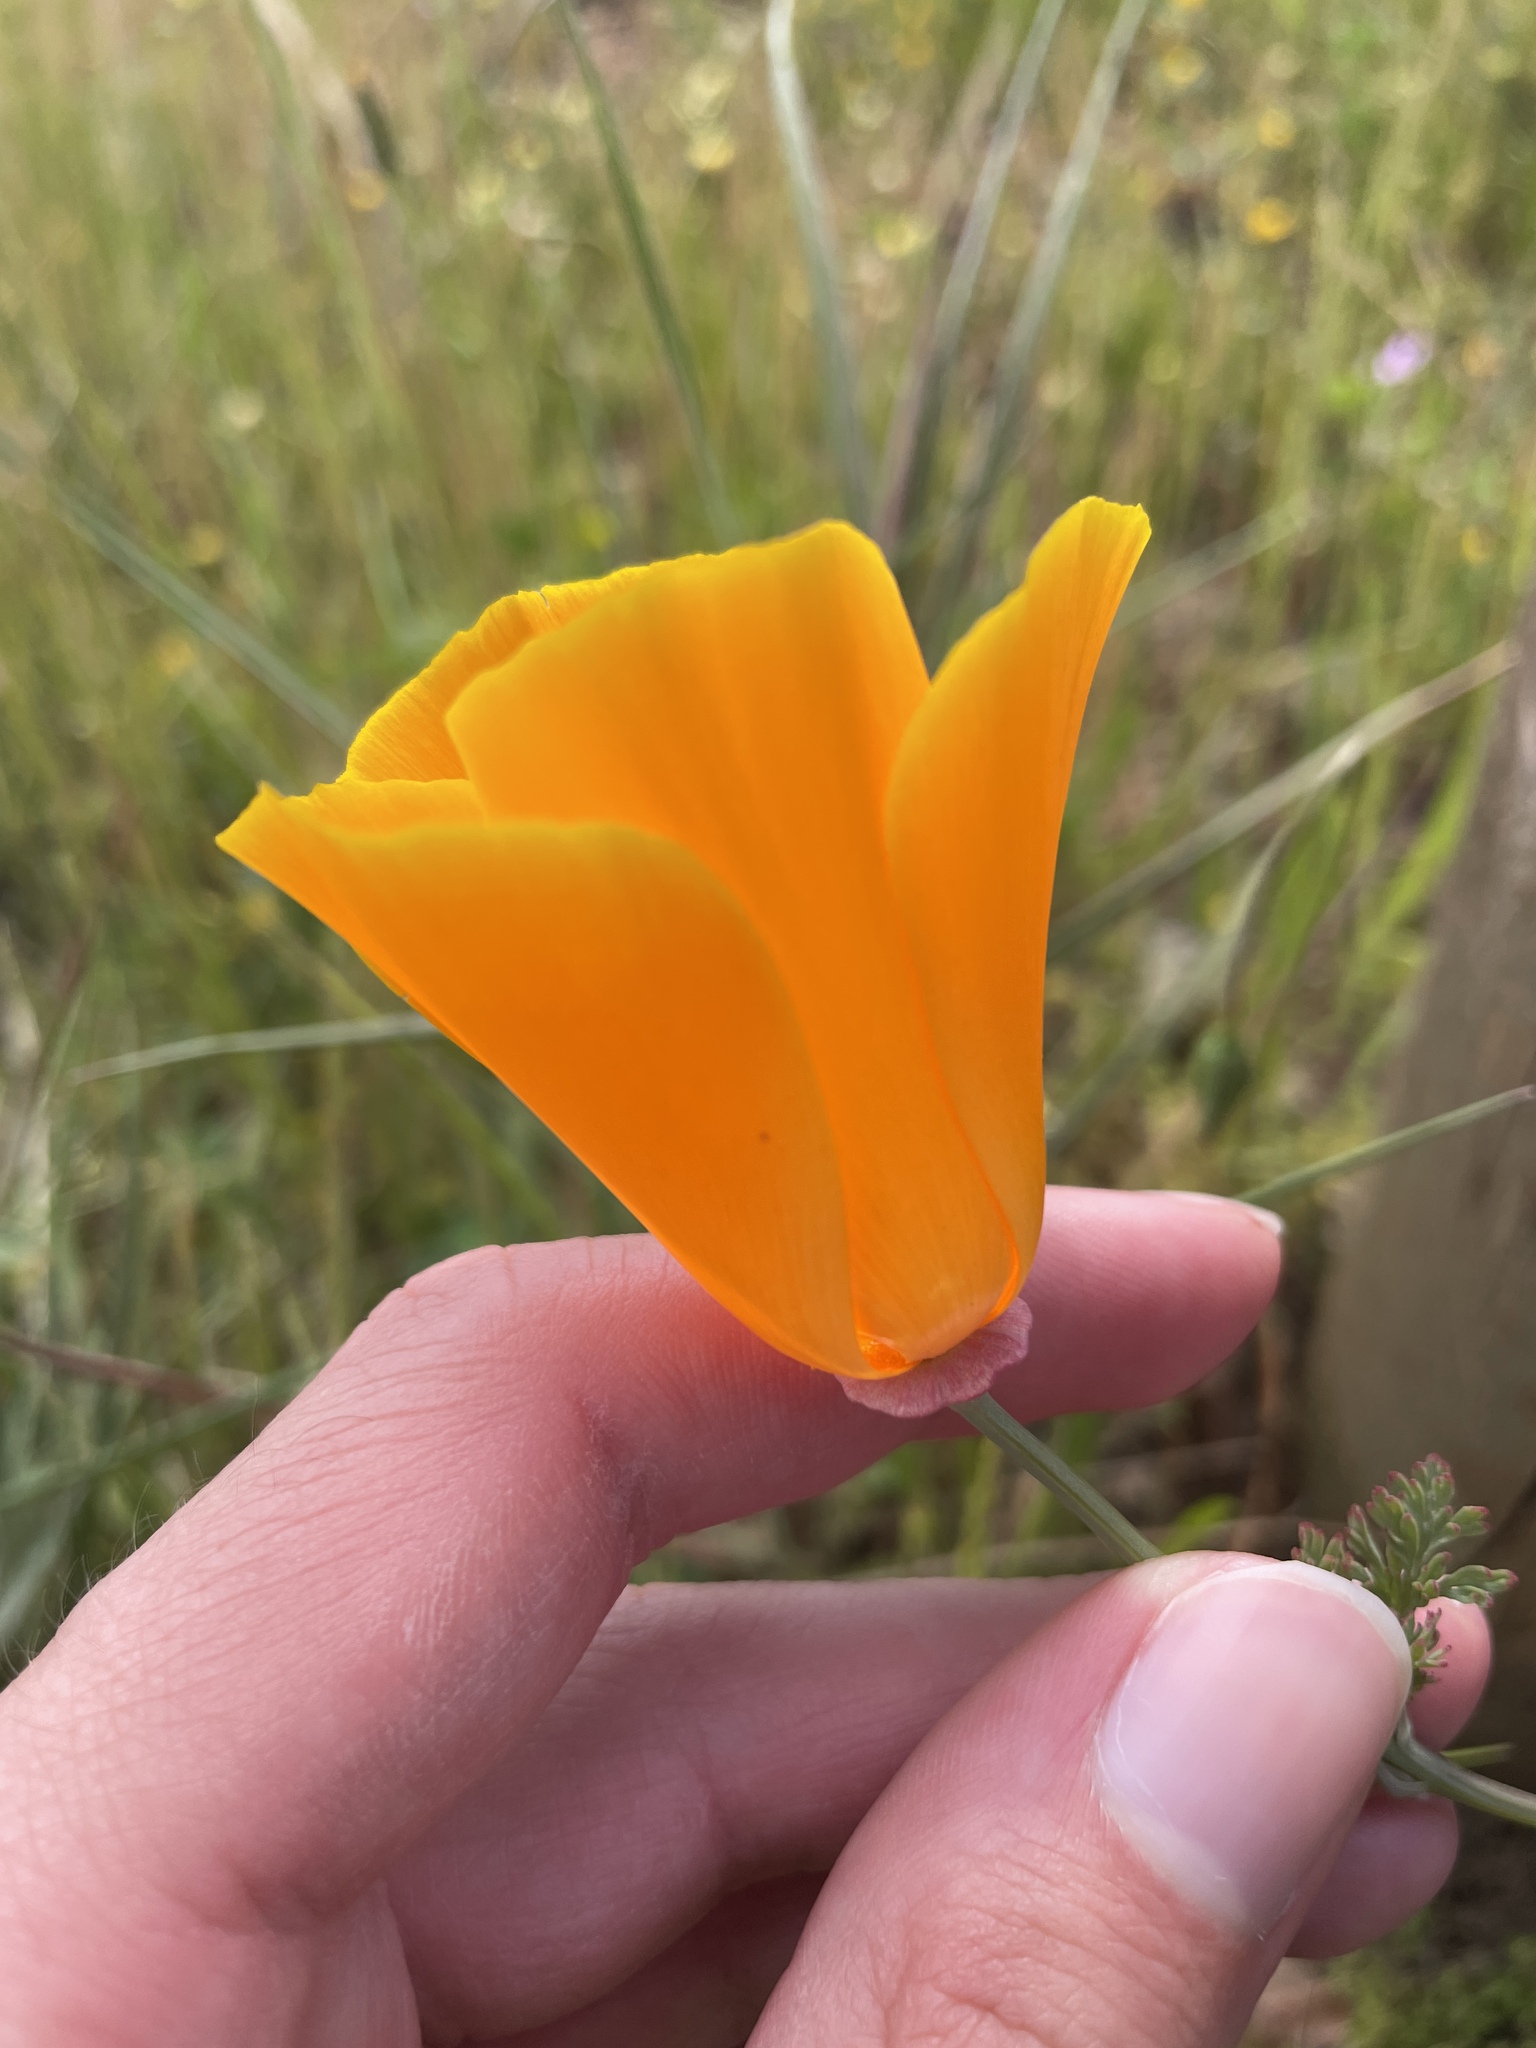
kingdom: Plantae
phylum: Tracheophyta
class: Magnoliopsida
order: Ranunculales
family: Papaveraceae
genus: Eschscholzia
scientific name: Eschscholzia californica
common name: California poppy
